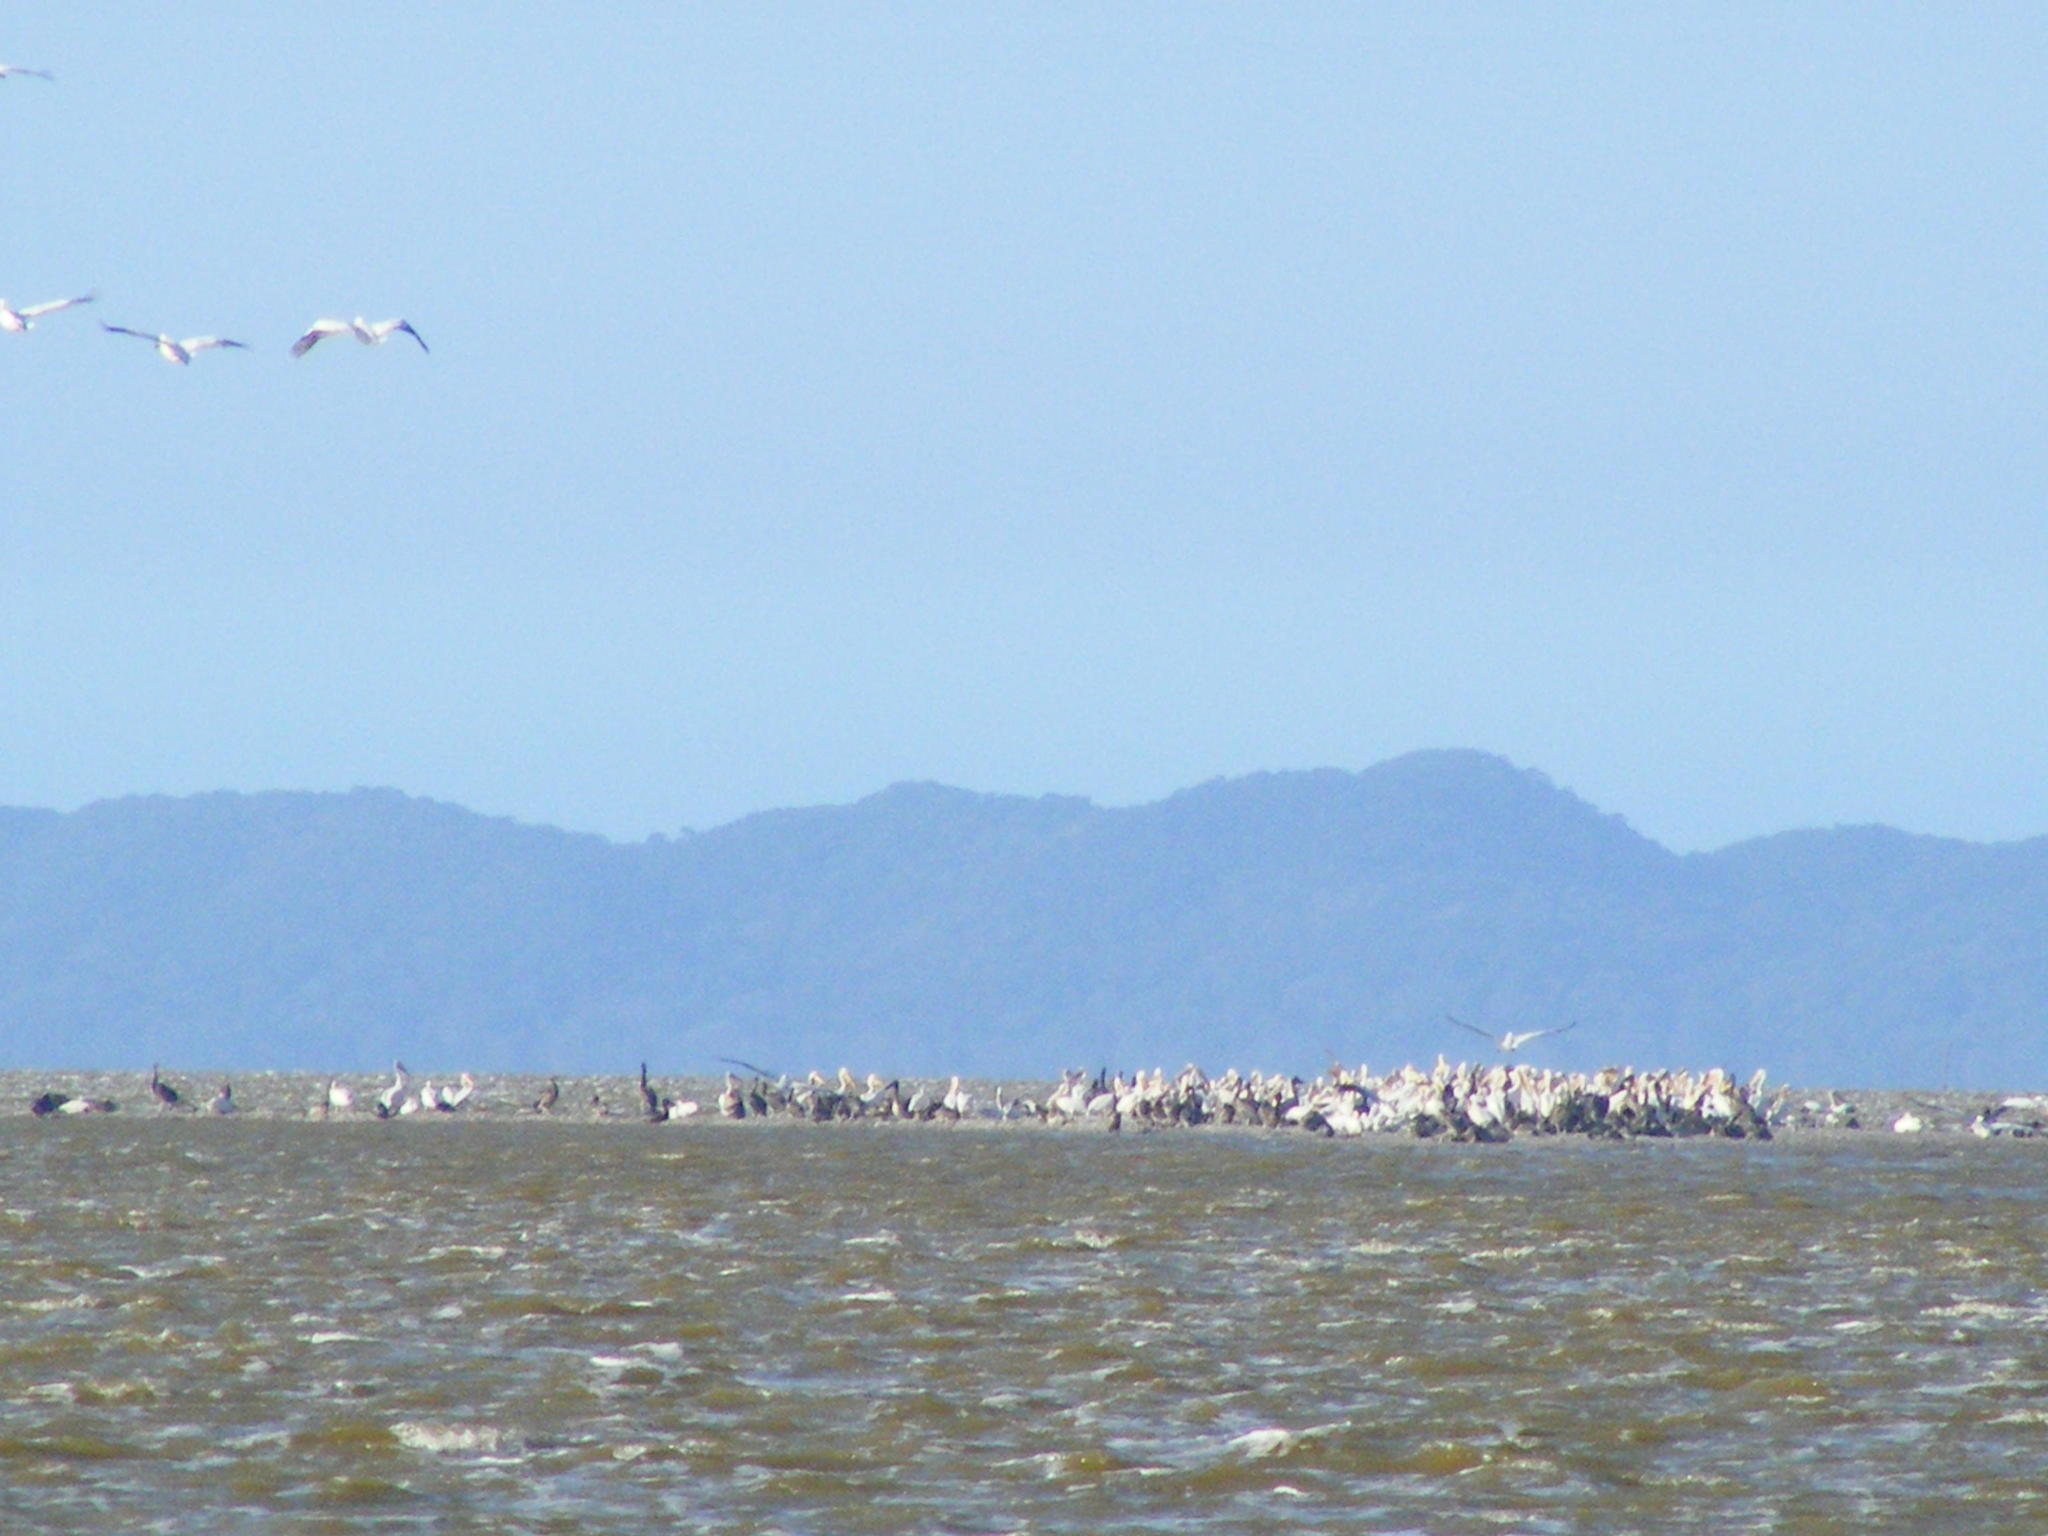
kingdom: Animalia
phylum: Chordata
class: Aves
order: Pelecaniformes
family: Pelecanidae
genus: Pelecanus
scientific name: Pelecanus onocrotalus
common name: Great white pelican
